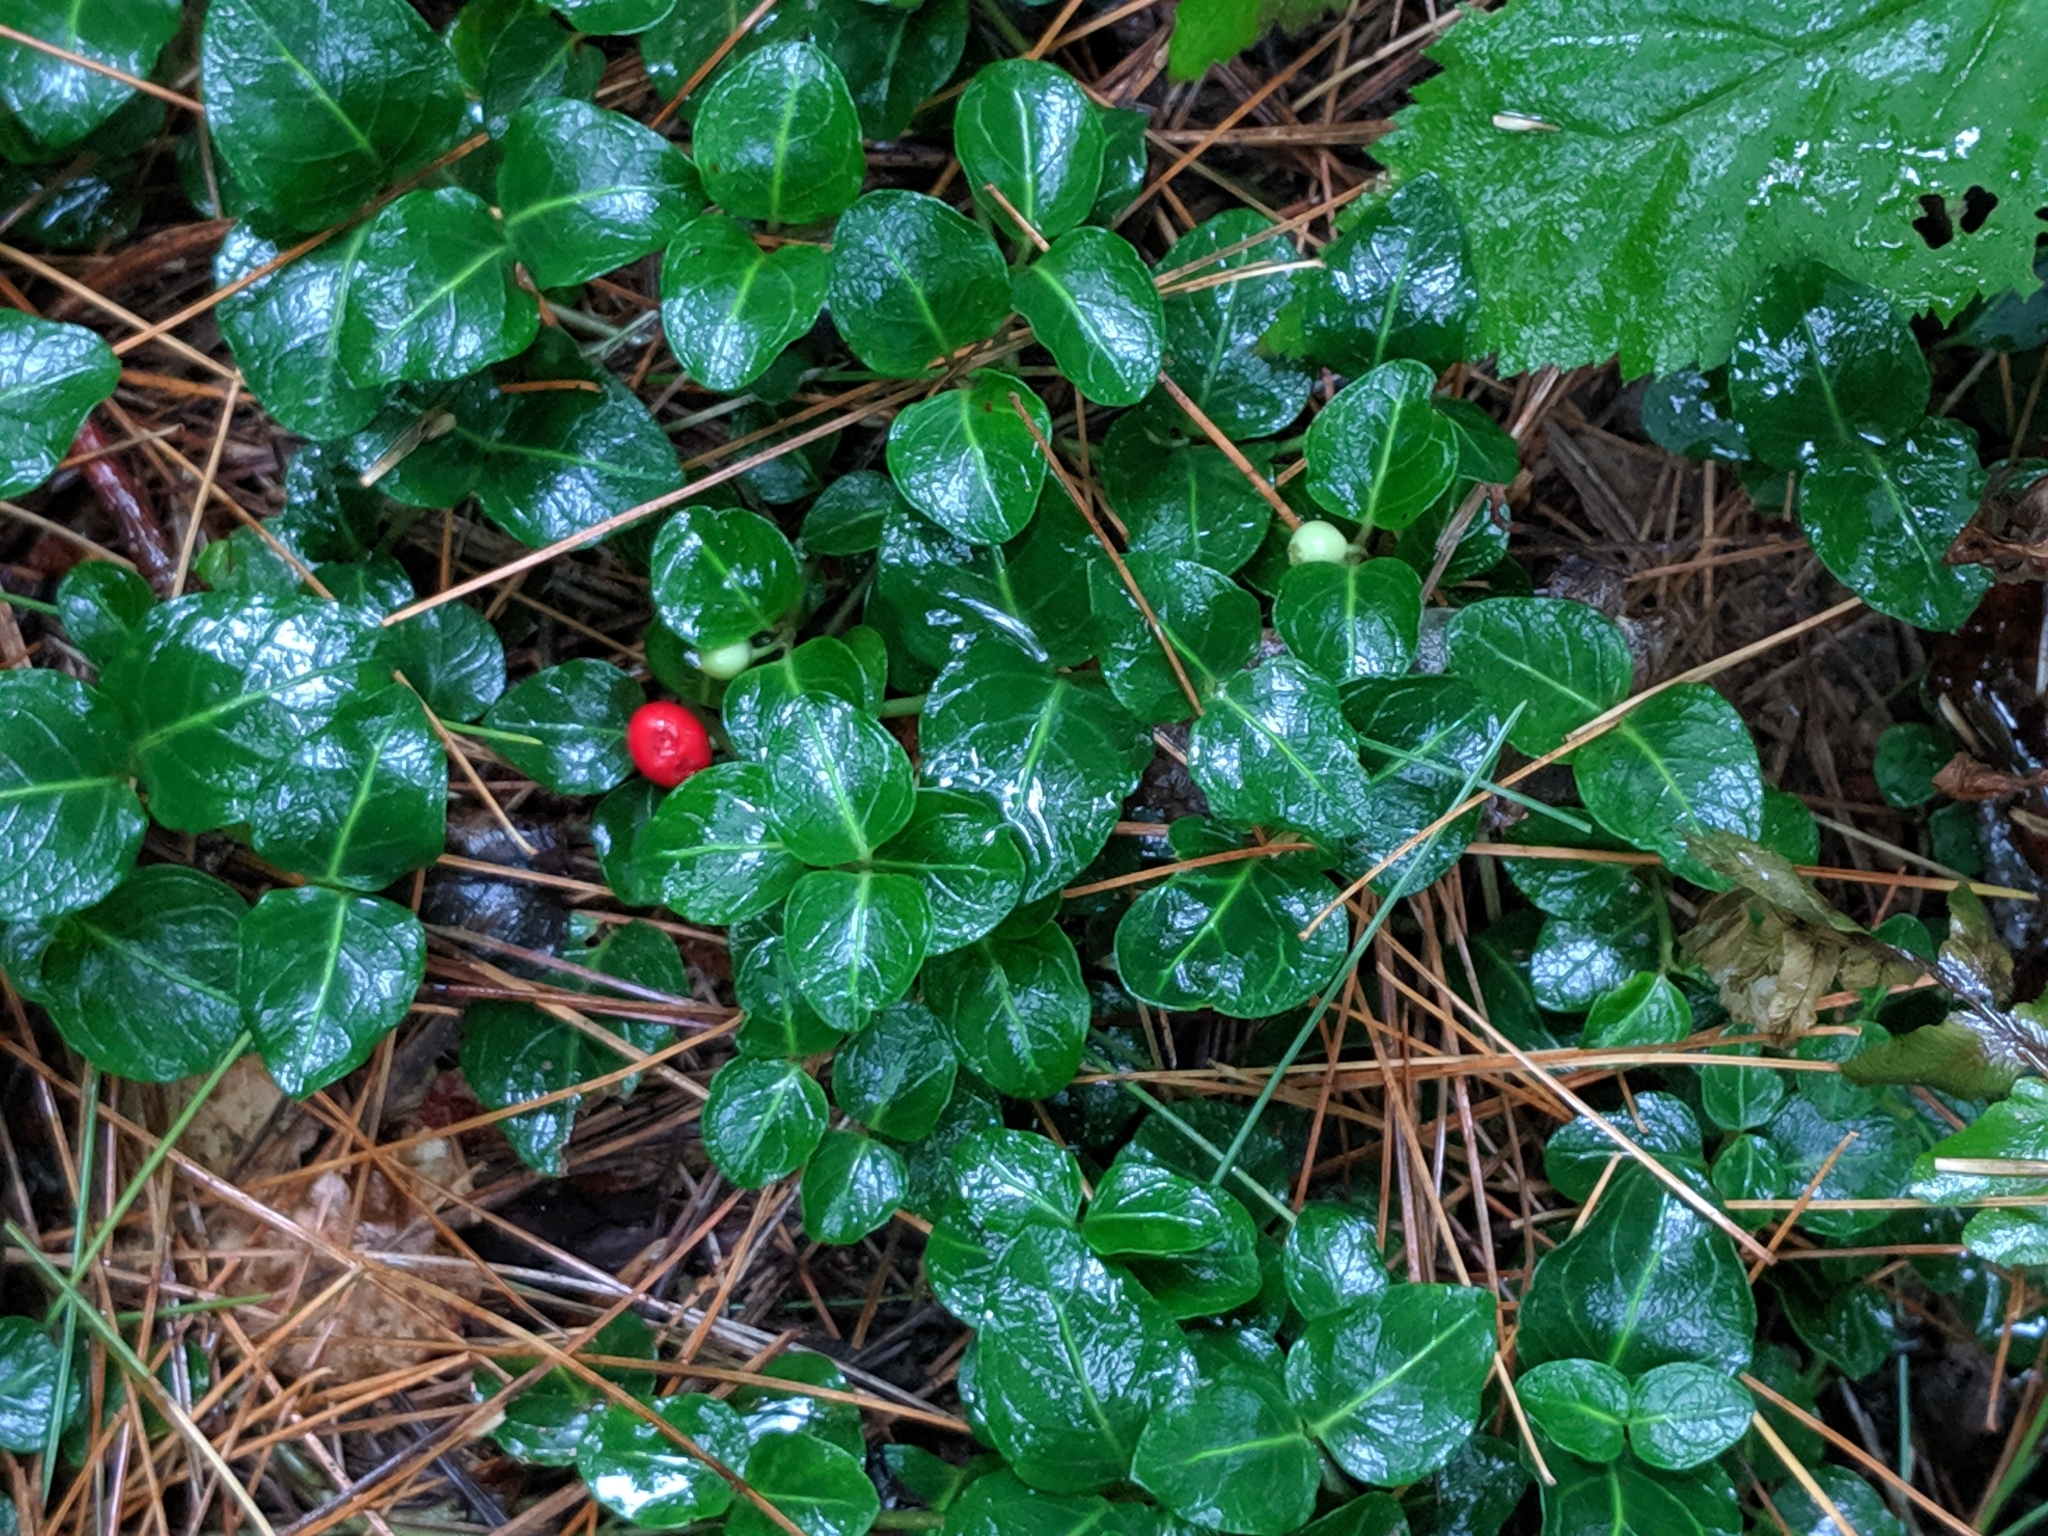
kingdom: Plantae
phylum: Tracheophyta
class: Magnoliopsida
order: Gentianales
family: Rubiaceae
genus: Mitchella
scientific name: Mitchella repens
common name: Partridge-berry
